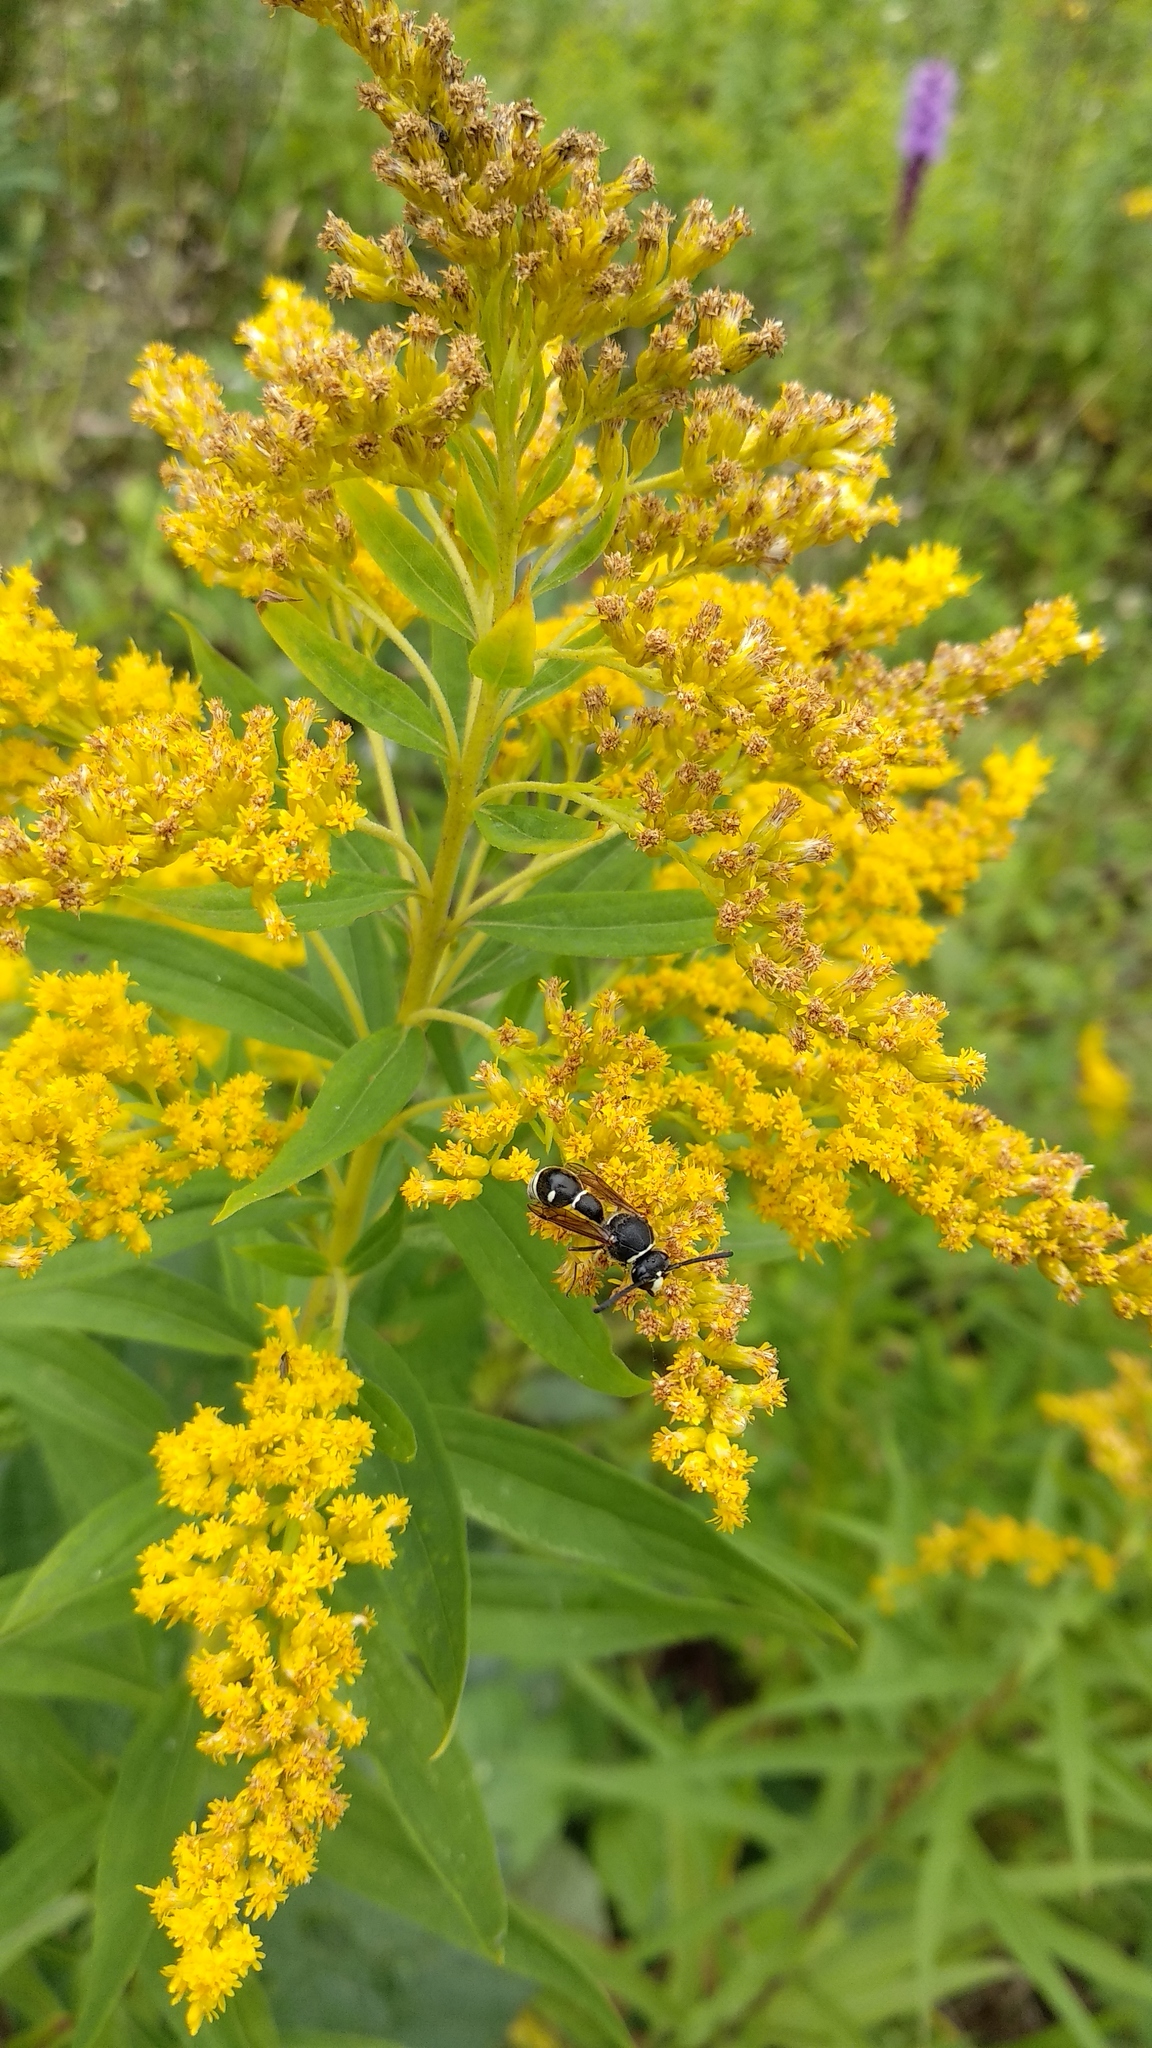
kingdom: Animalia
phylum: Arthropoda
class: Insecta
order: Hymenoptera
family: Vespidae
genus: Eumenes
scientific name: Eumenes crucifera
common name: Cross potter wasp
